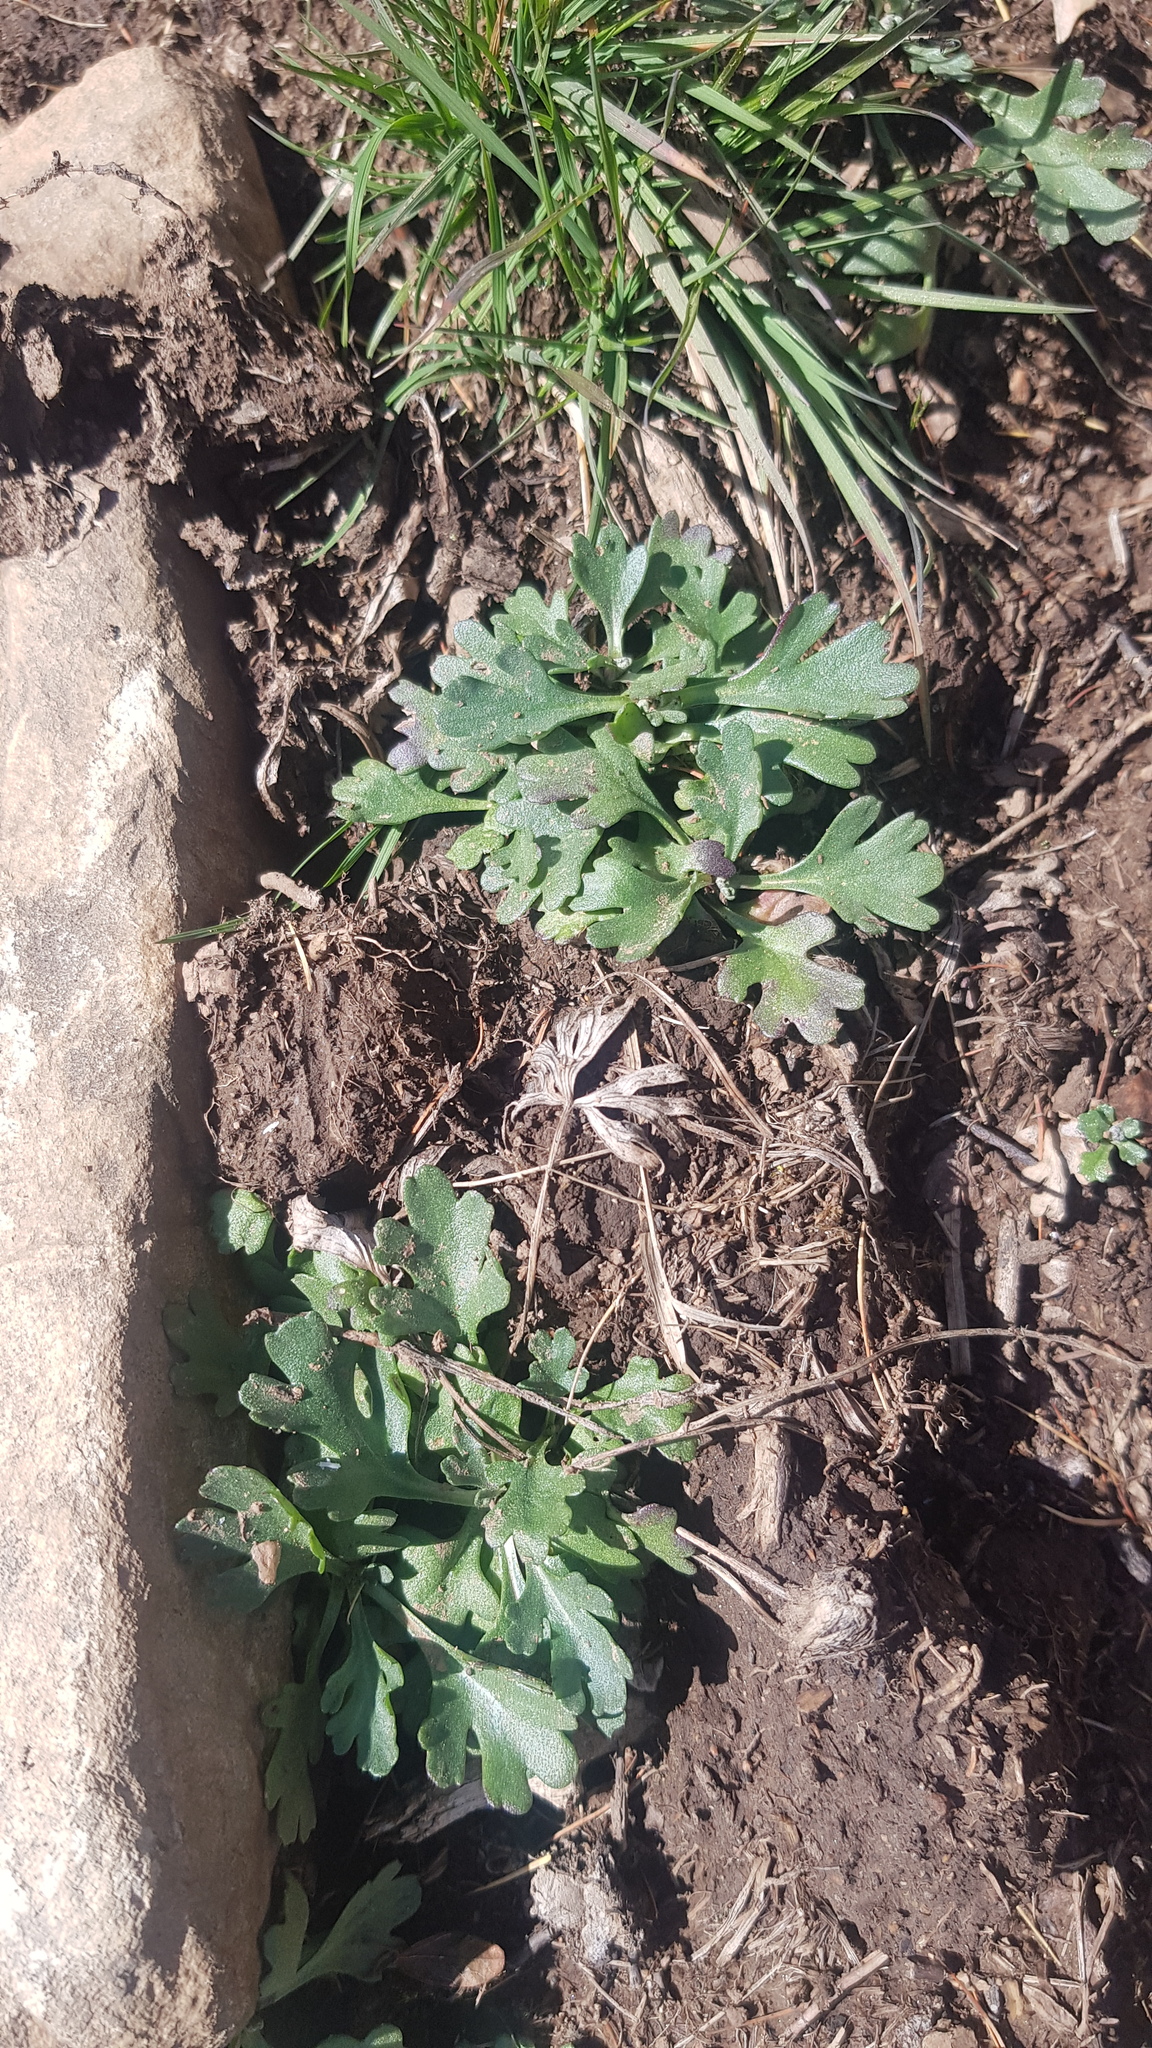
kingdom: Plantae
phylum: Tracheophyta
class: Magnoliopsida
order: Asterales
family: Asteraceae
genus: Chrysanthemum
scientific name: Chrysanthemum zawadzkii
